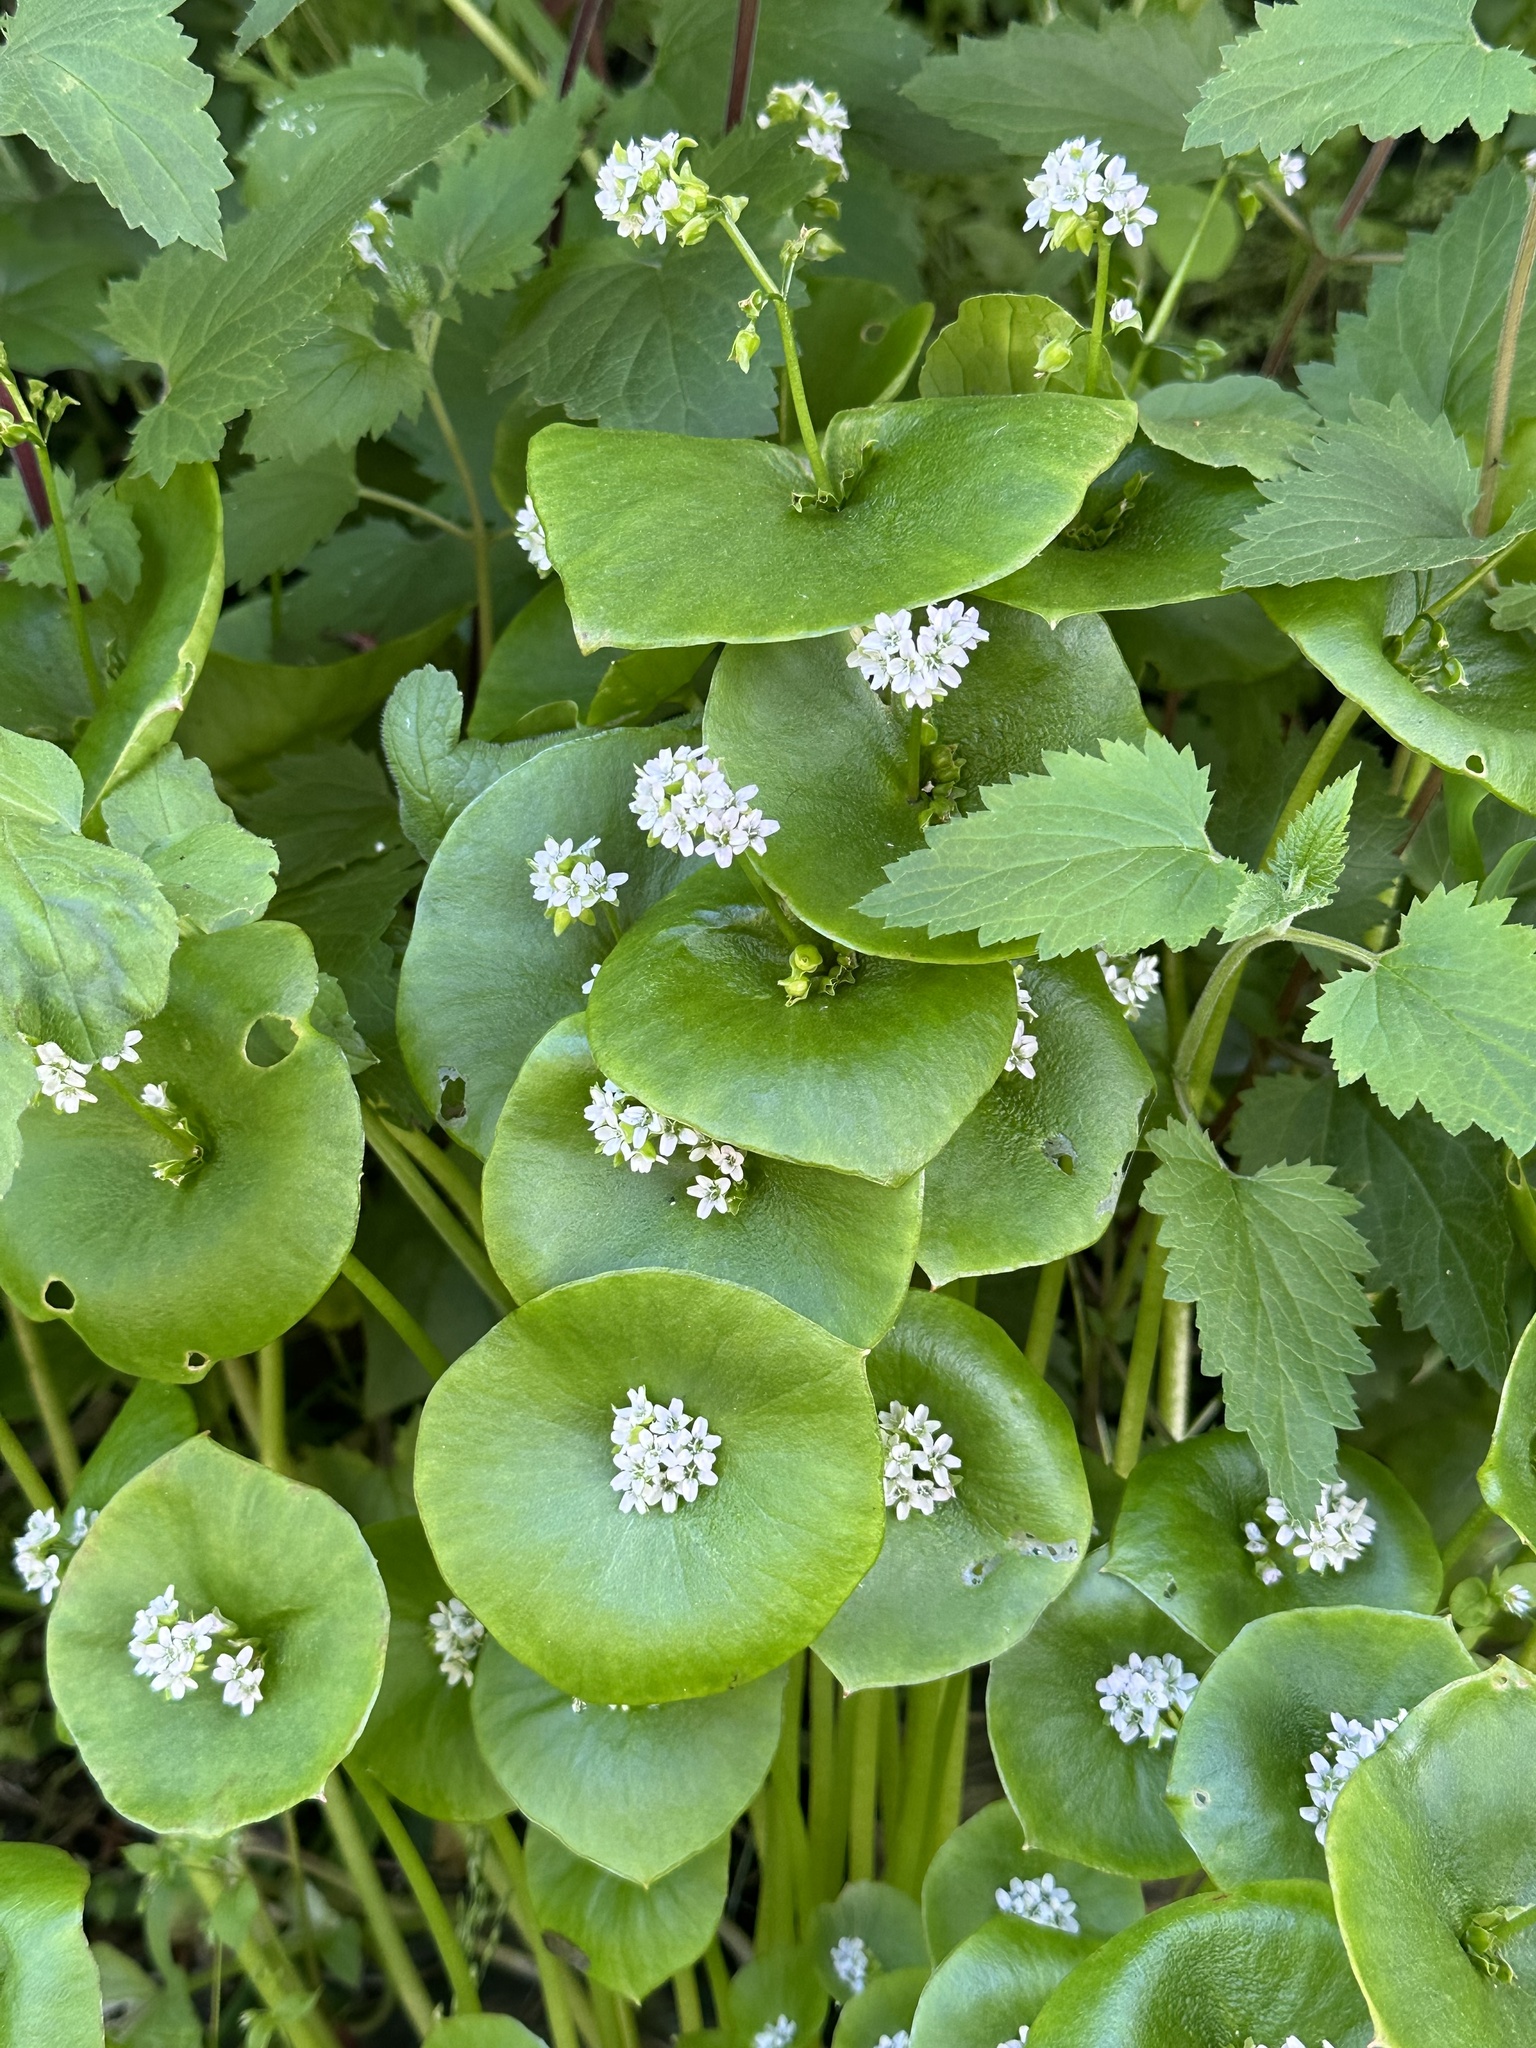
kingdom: Plantae
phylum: Tracheophyta
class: Magnoliopsida
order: Caryophyllales
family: Montiaceae
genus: Claytonia
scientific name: Claytonia perfoliata
